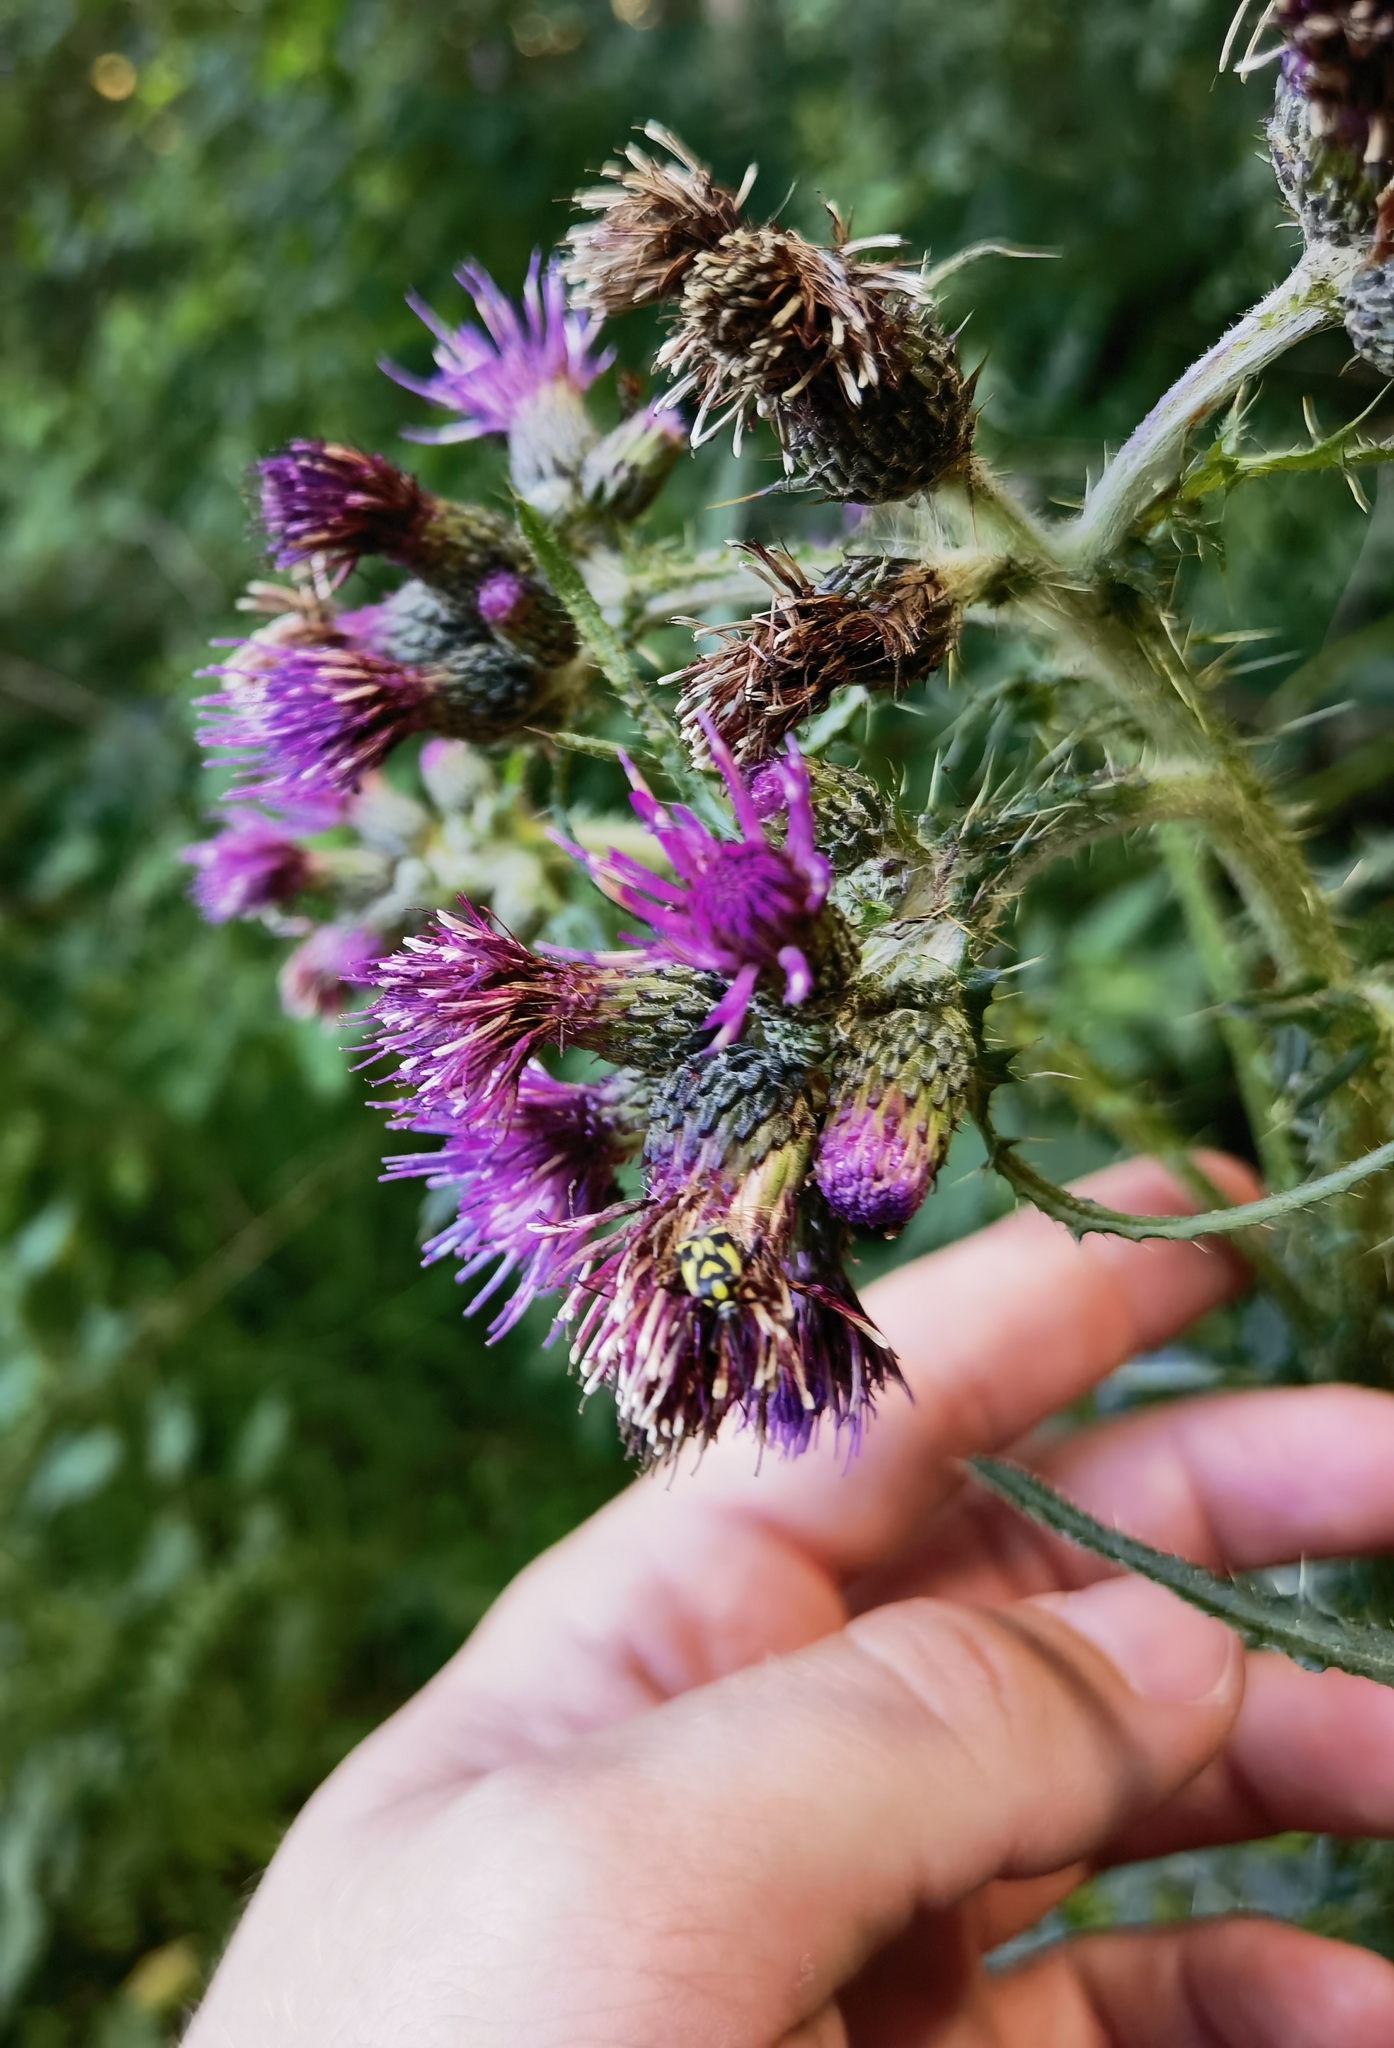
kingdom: Plantae
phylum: Tracheophyta
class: Magnoliopsida
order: Asterales
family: Asteraceae
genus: Cirsium
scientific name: Cirsium palustre
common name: Marsh thistle
